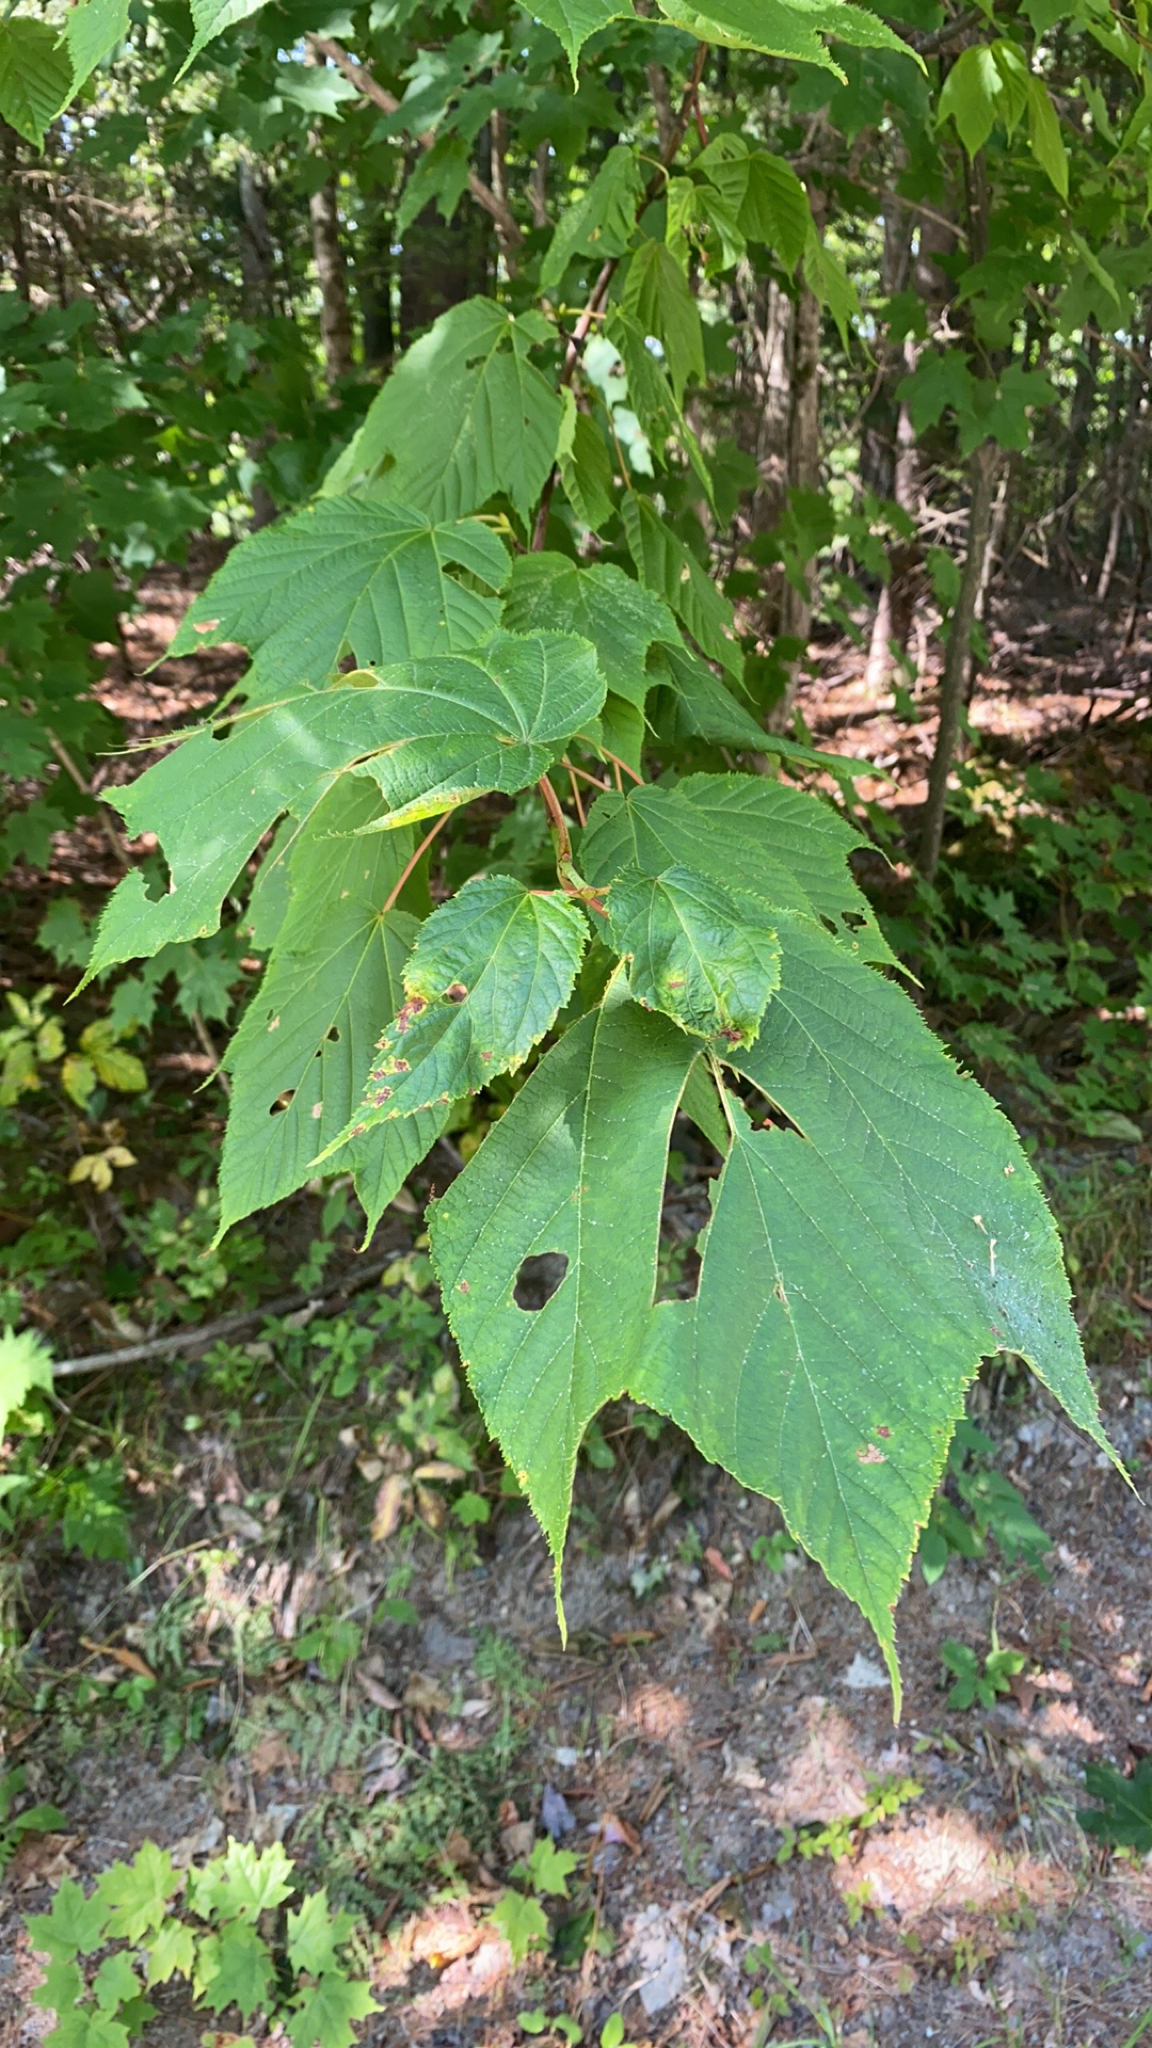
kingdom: Plantae
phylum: Tracheophyta
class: Magnoliopsida
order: Sapindales
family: Sapindaceae
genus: Acer
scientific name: Acer pensylvanicum
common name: Moosewood
